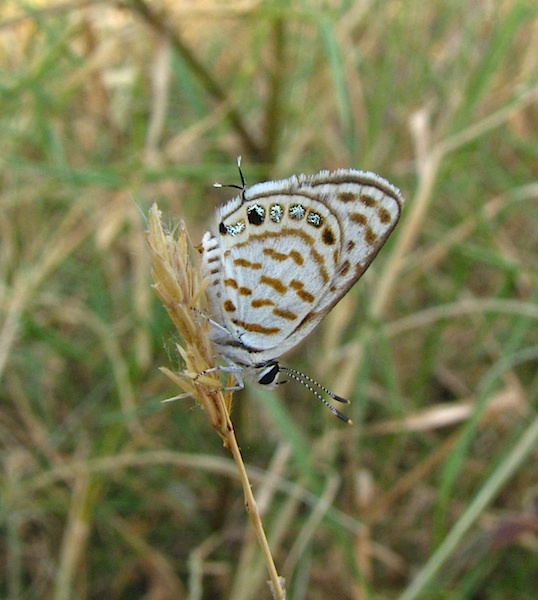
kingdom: Animalia
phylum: Arthropoda
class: Insecta
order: Lepidoptera
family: Lycaenidae
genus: Tarucus
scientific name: Tarucus
